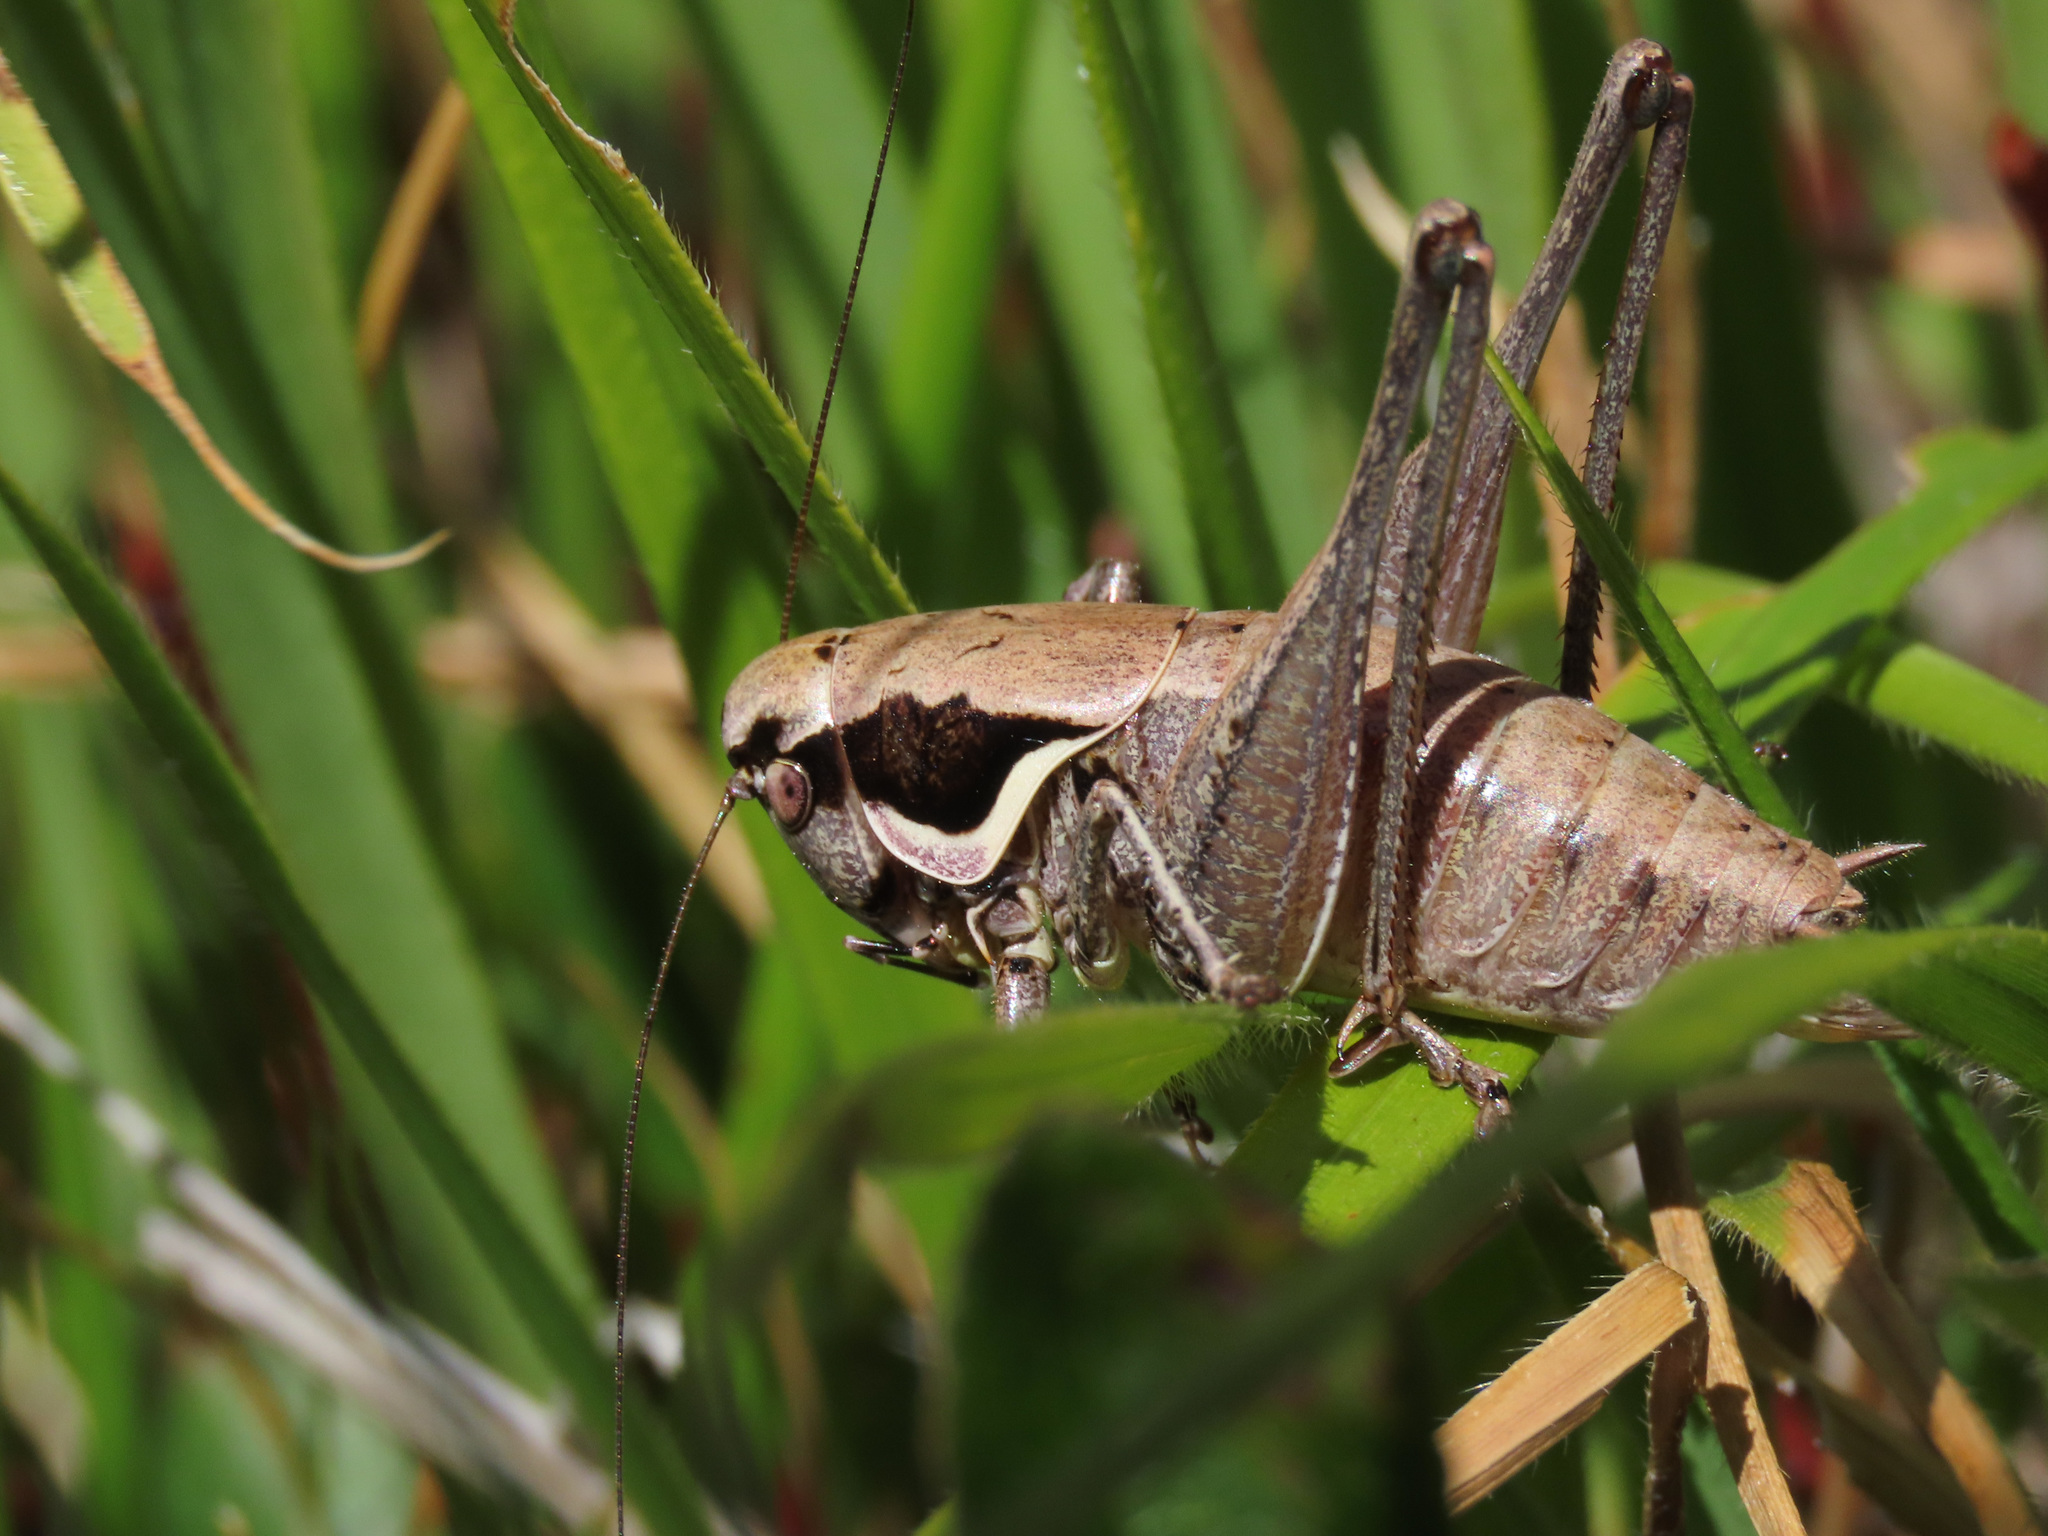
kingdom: Animalia
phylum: Arthropoda
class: Insecta
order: Orthoptera
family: Tettigoniidae
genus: Pholidoptera
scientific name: Pholidoptera fallax
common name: Fischer's bush-cricket
